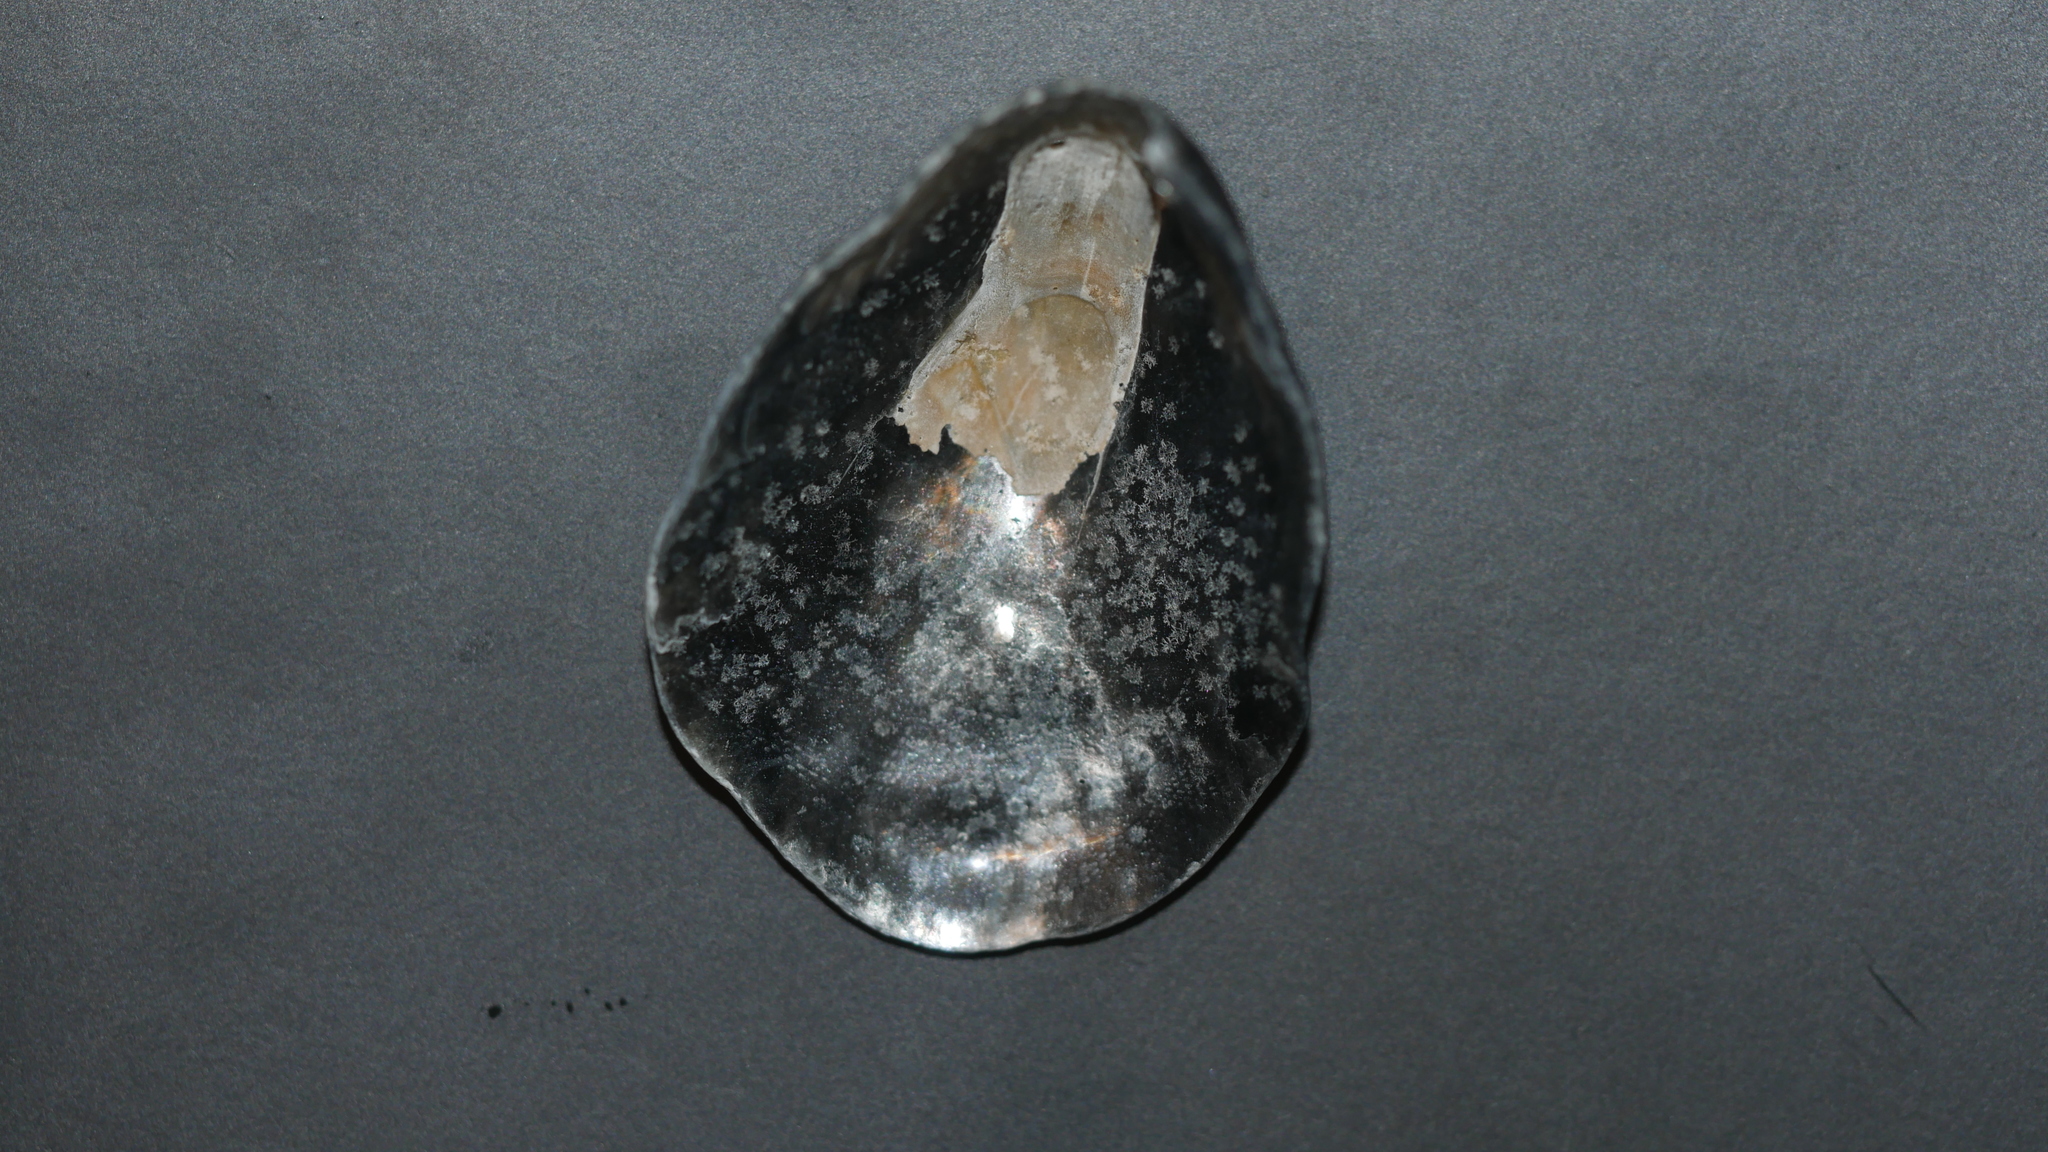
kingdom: Animalia
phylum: Mollusca
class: Bivalvia
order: Pectinida
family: Anomiidae
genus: Anomia
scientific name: Anomia simplex
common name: Common jingle shell
